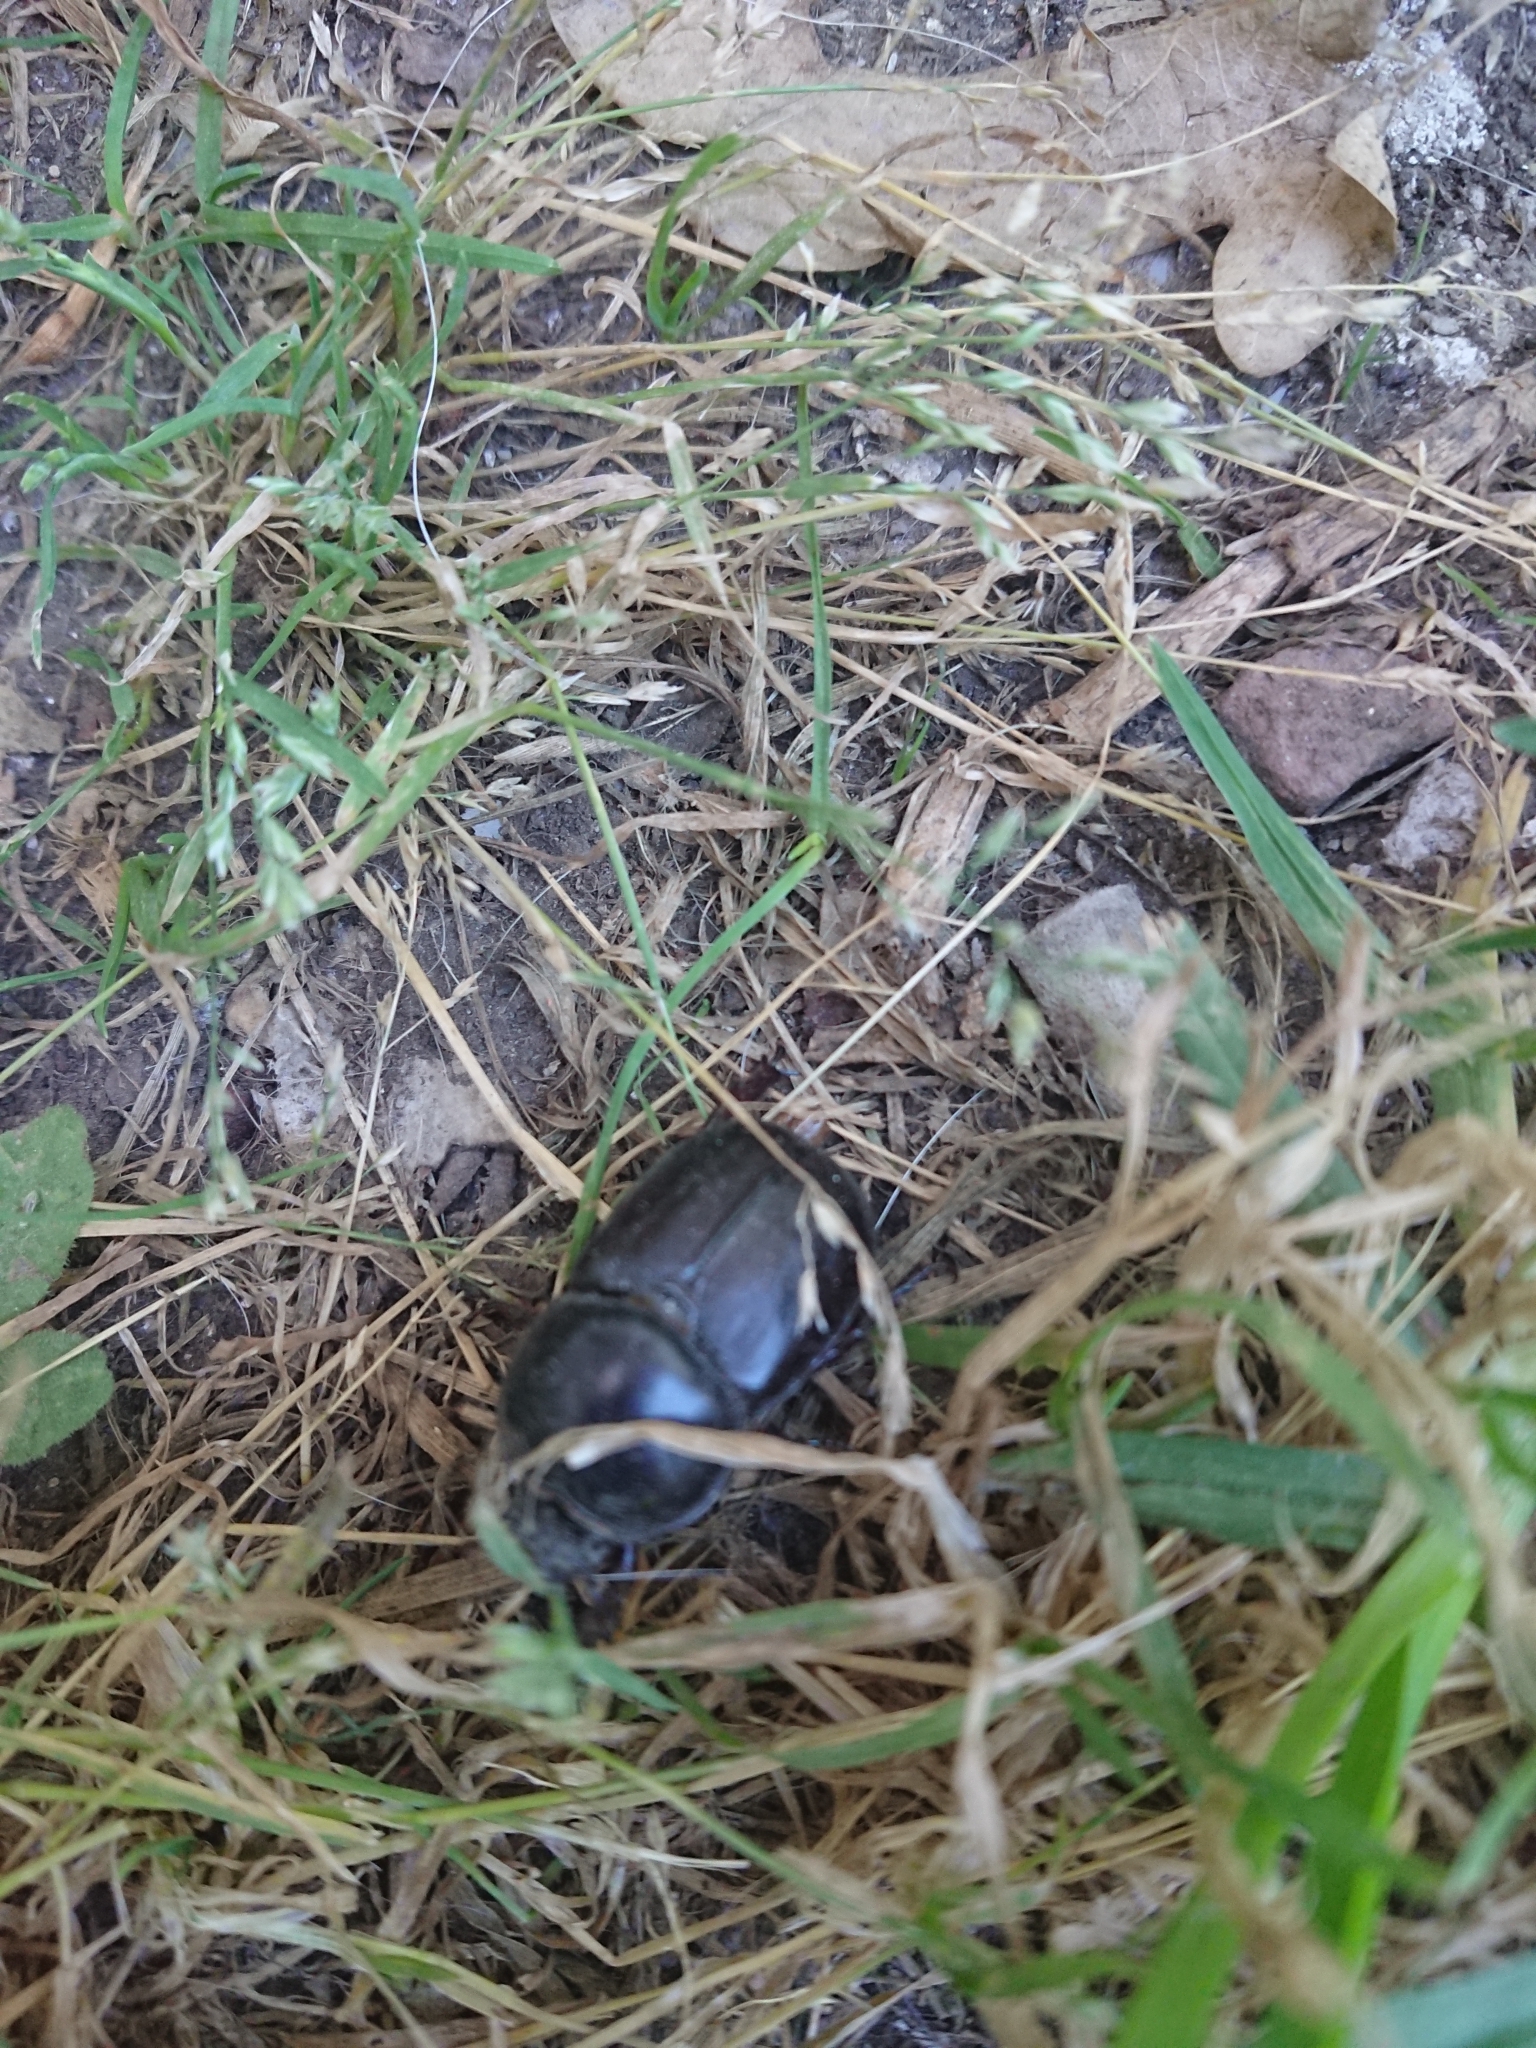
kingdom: Animalia
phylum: Arthropoda
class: Insecta
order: Coleoptera
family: Scarabaeidae
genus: Diloboderus
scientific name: Diloboderus abderus
